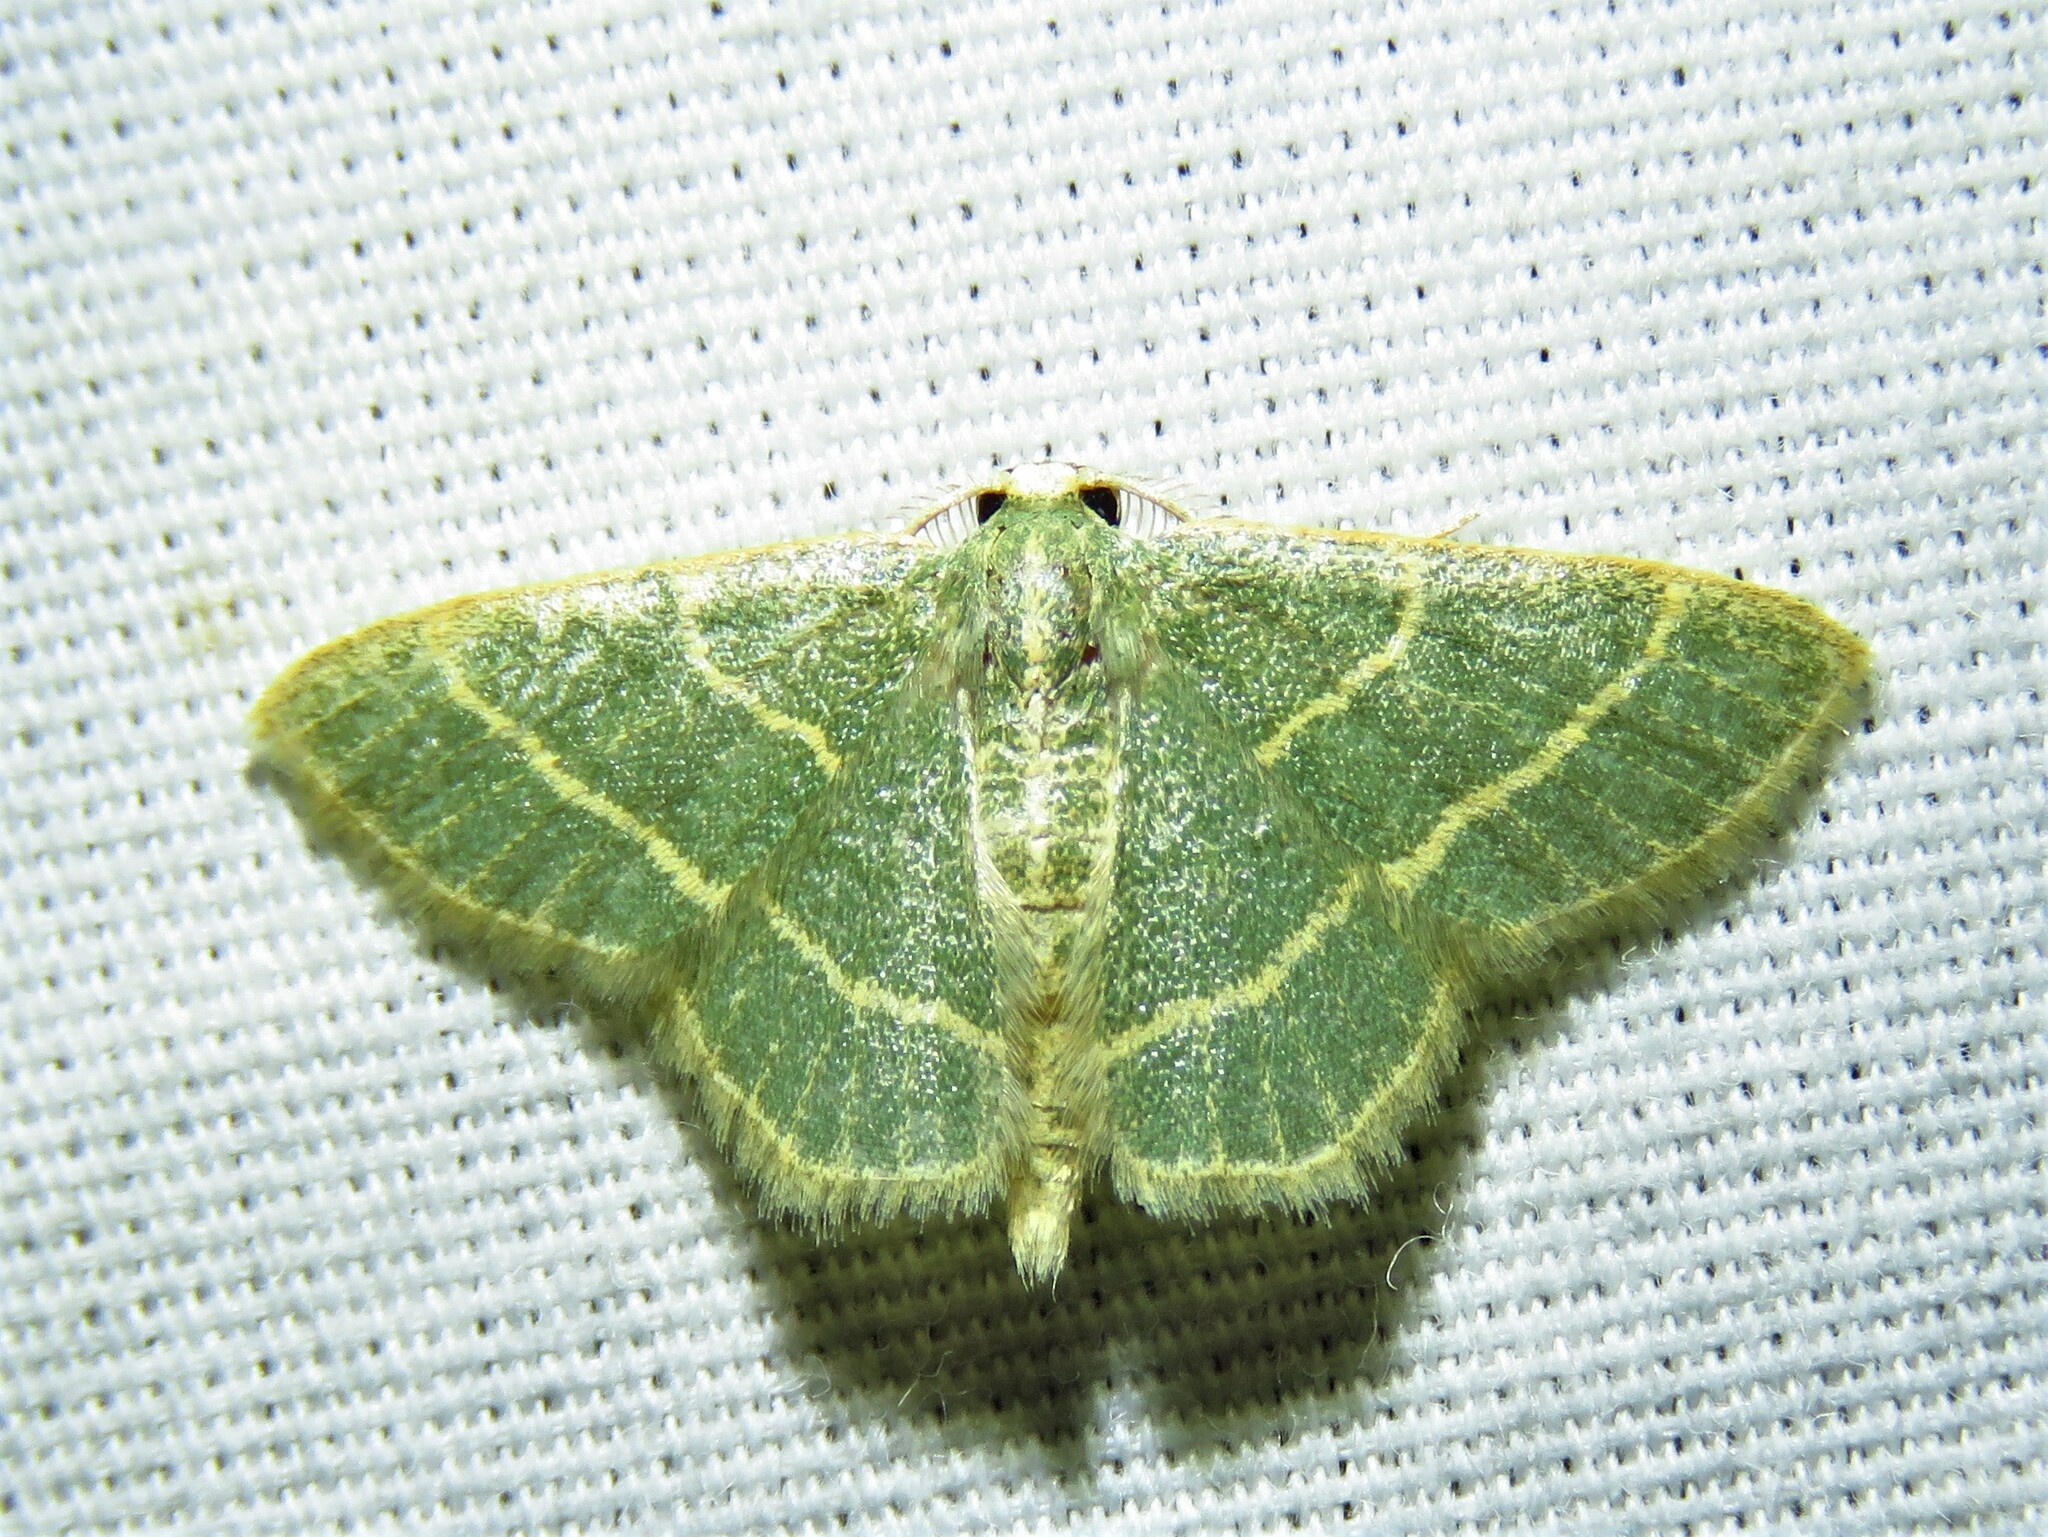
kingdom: Animalia
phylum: Arthropoda
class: Insecta
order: Lepidoptera
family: Geometridae
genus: Chlorochlamys
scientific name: Chlorochlamys chloroleucaria
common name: Blackberry looper
